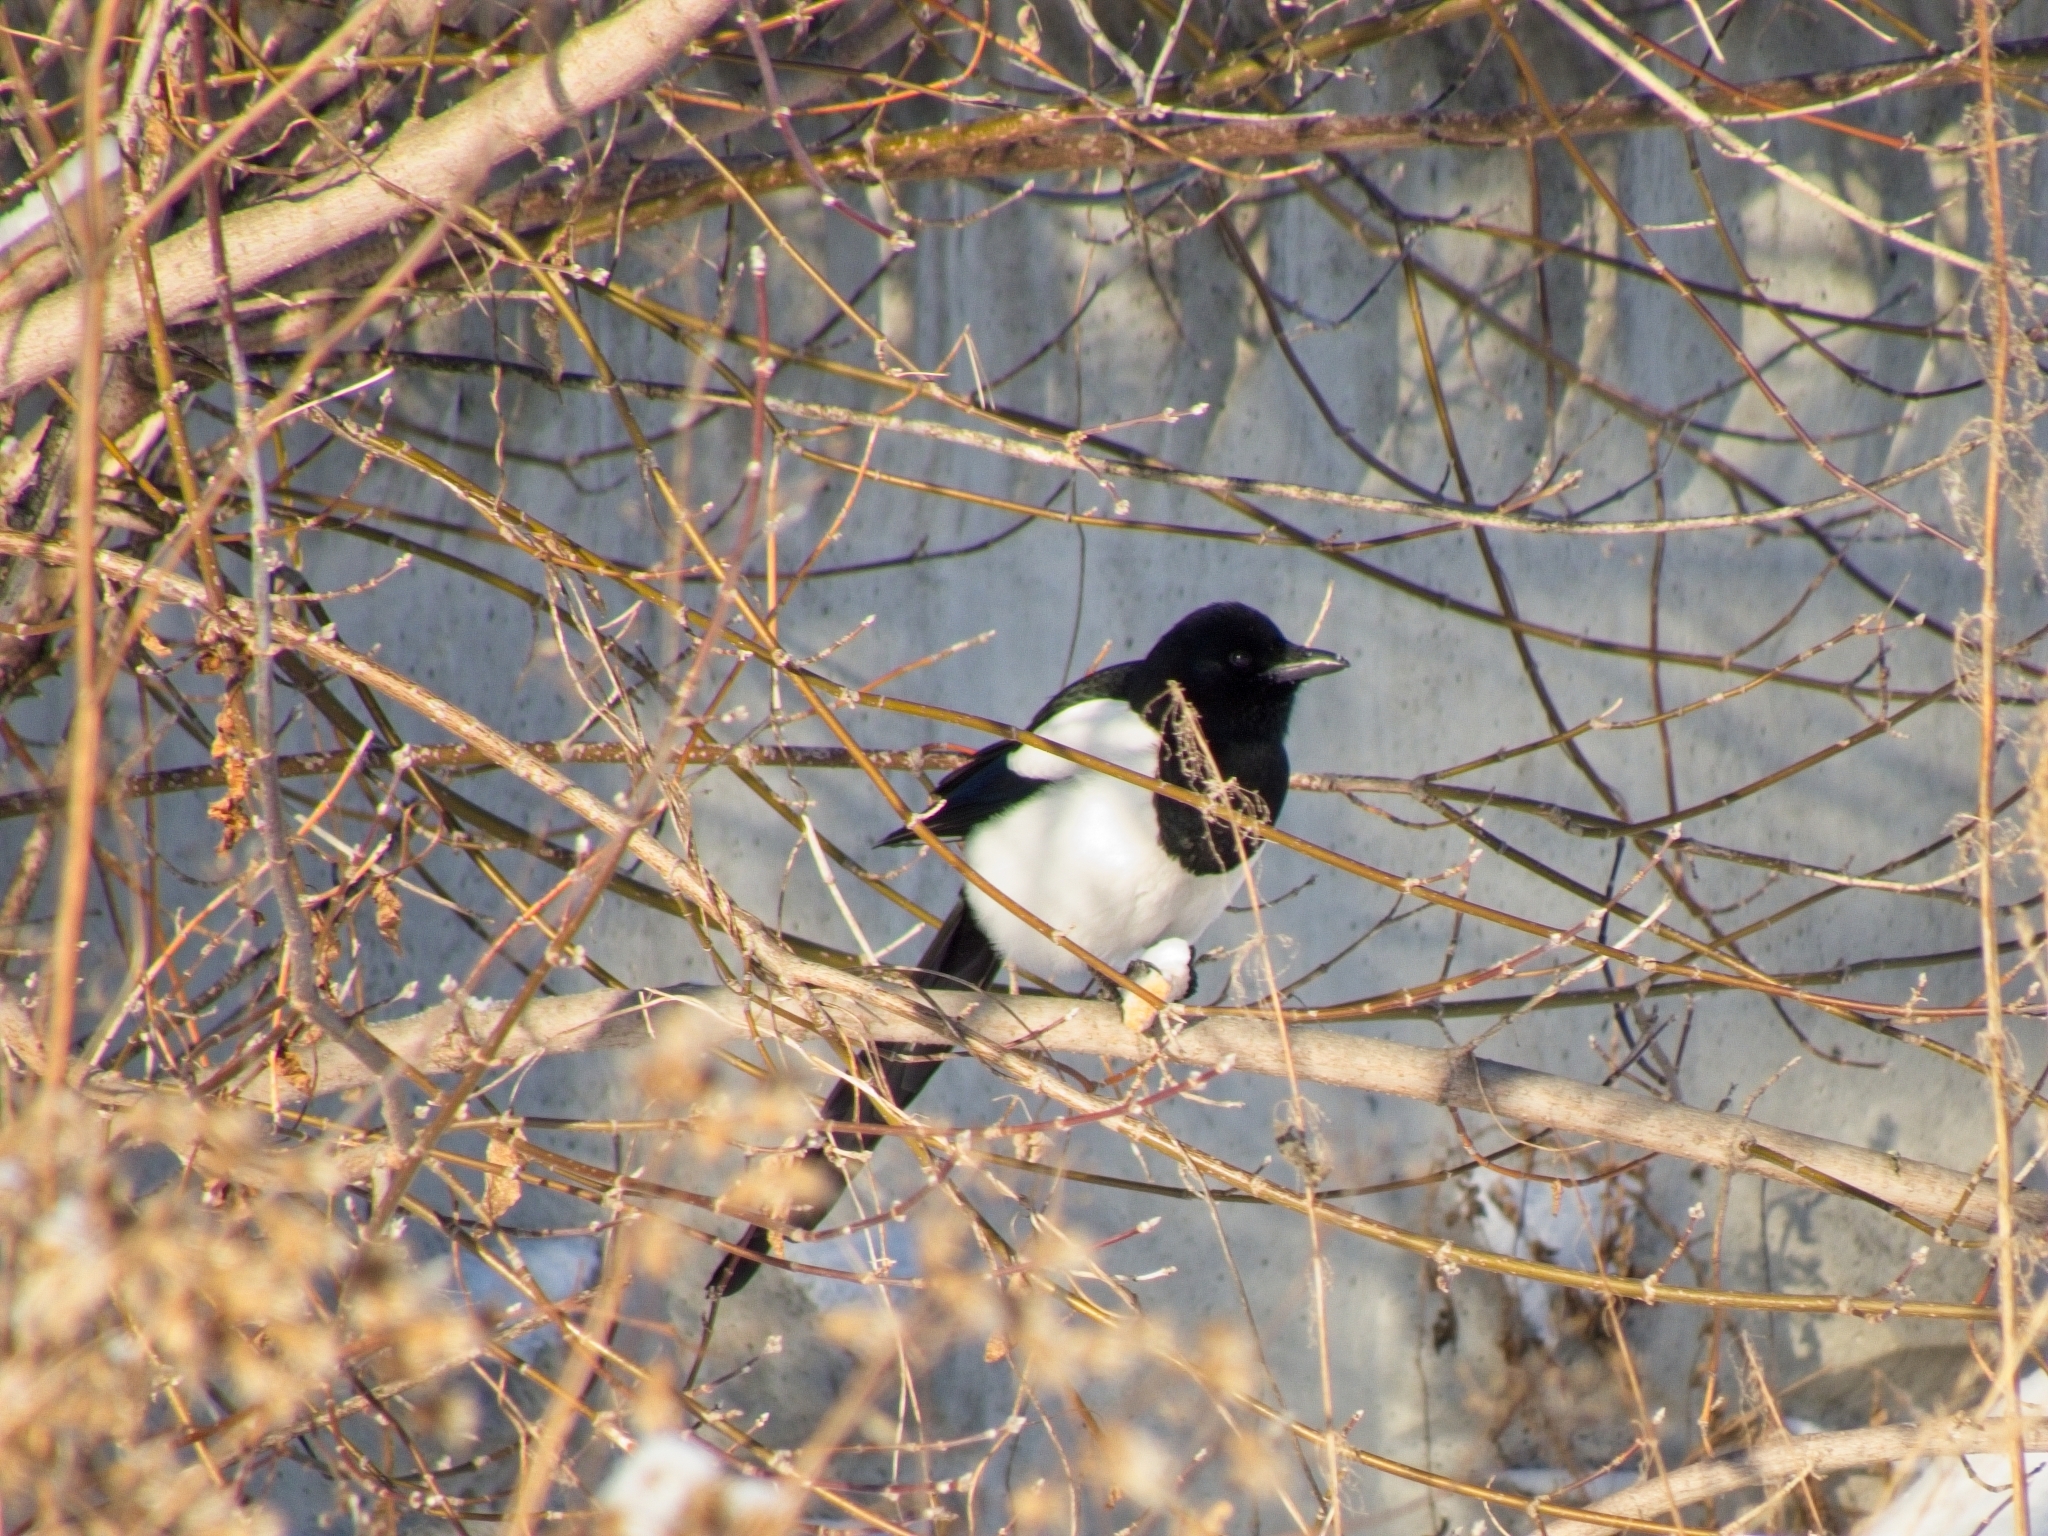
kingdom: Animalia
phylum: Chordata
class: Aves
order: Passeriformes
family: Corvidae
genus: Pica
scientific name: Pica pica
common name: Eurasian magpie
